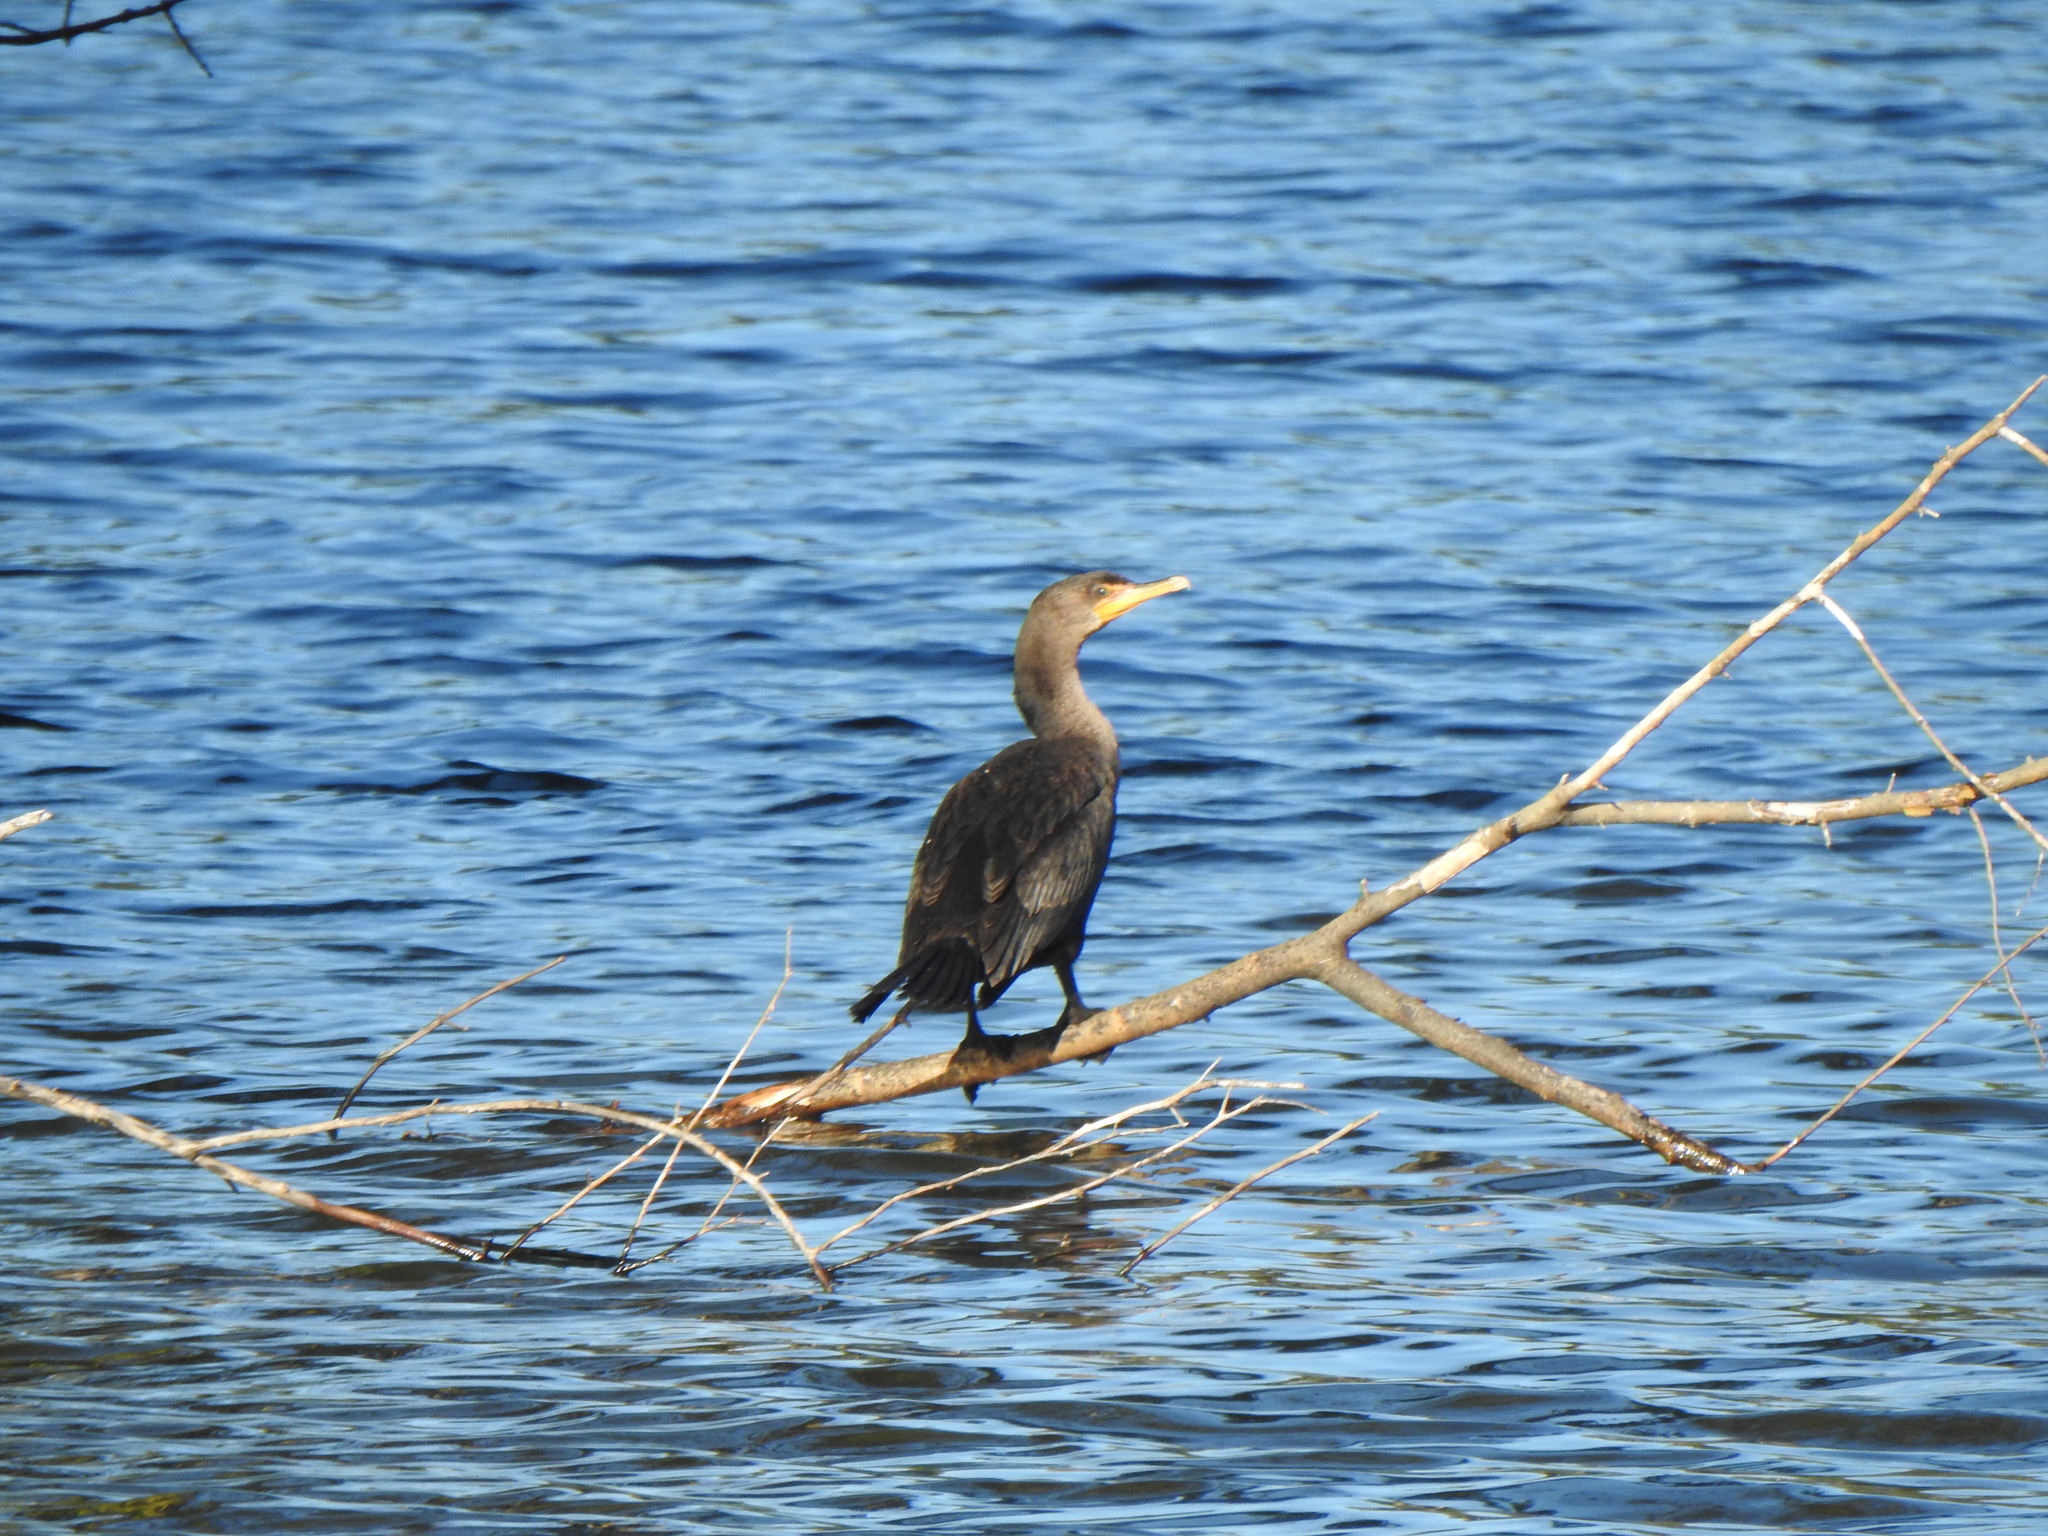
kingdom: Animalia
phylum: Chordata
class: Aves
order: Suliformes
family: Phalacrocoracidae
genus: Phalacrocorax
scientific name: Phalacrocorax auritus
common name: Double-crested cormorant
